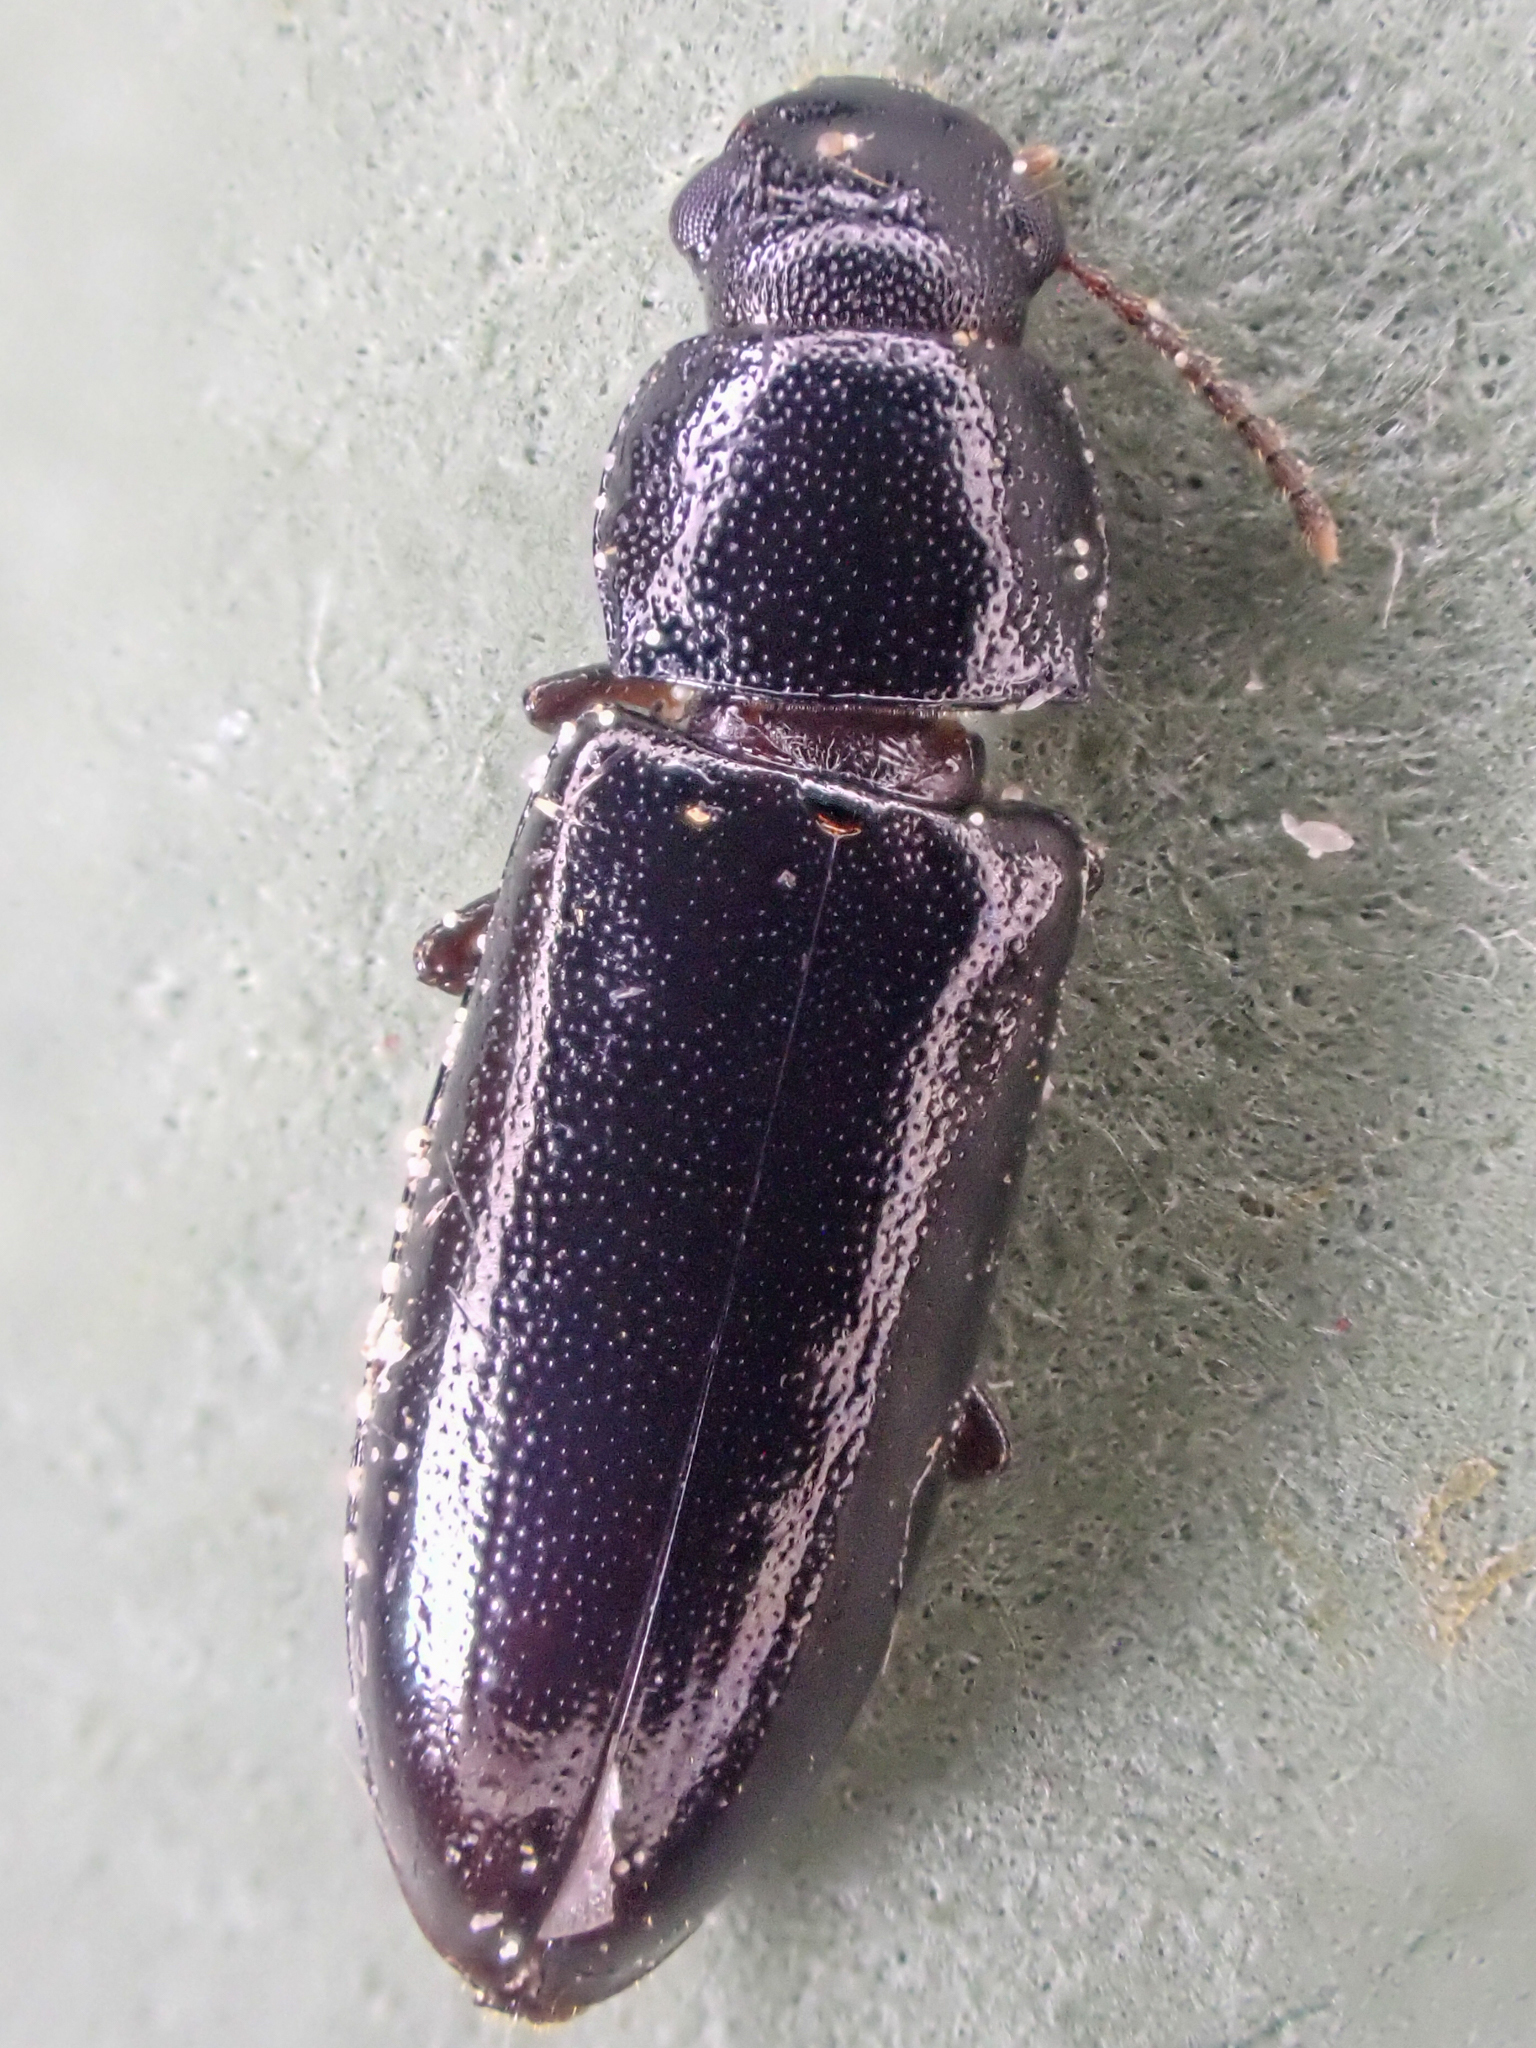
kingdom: Animalia
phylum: Arthropoda
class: Insecta
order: Coleoptera
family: Pythidae
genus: Sphalma
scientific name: Sphalma quadricollis
